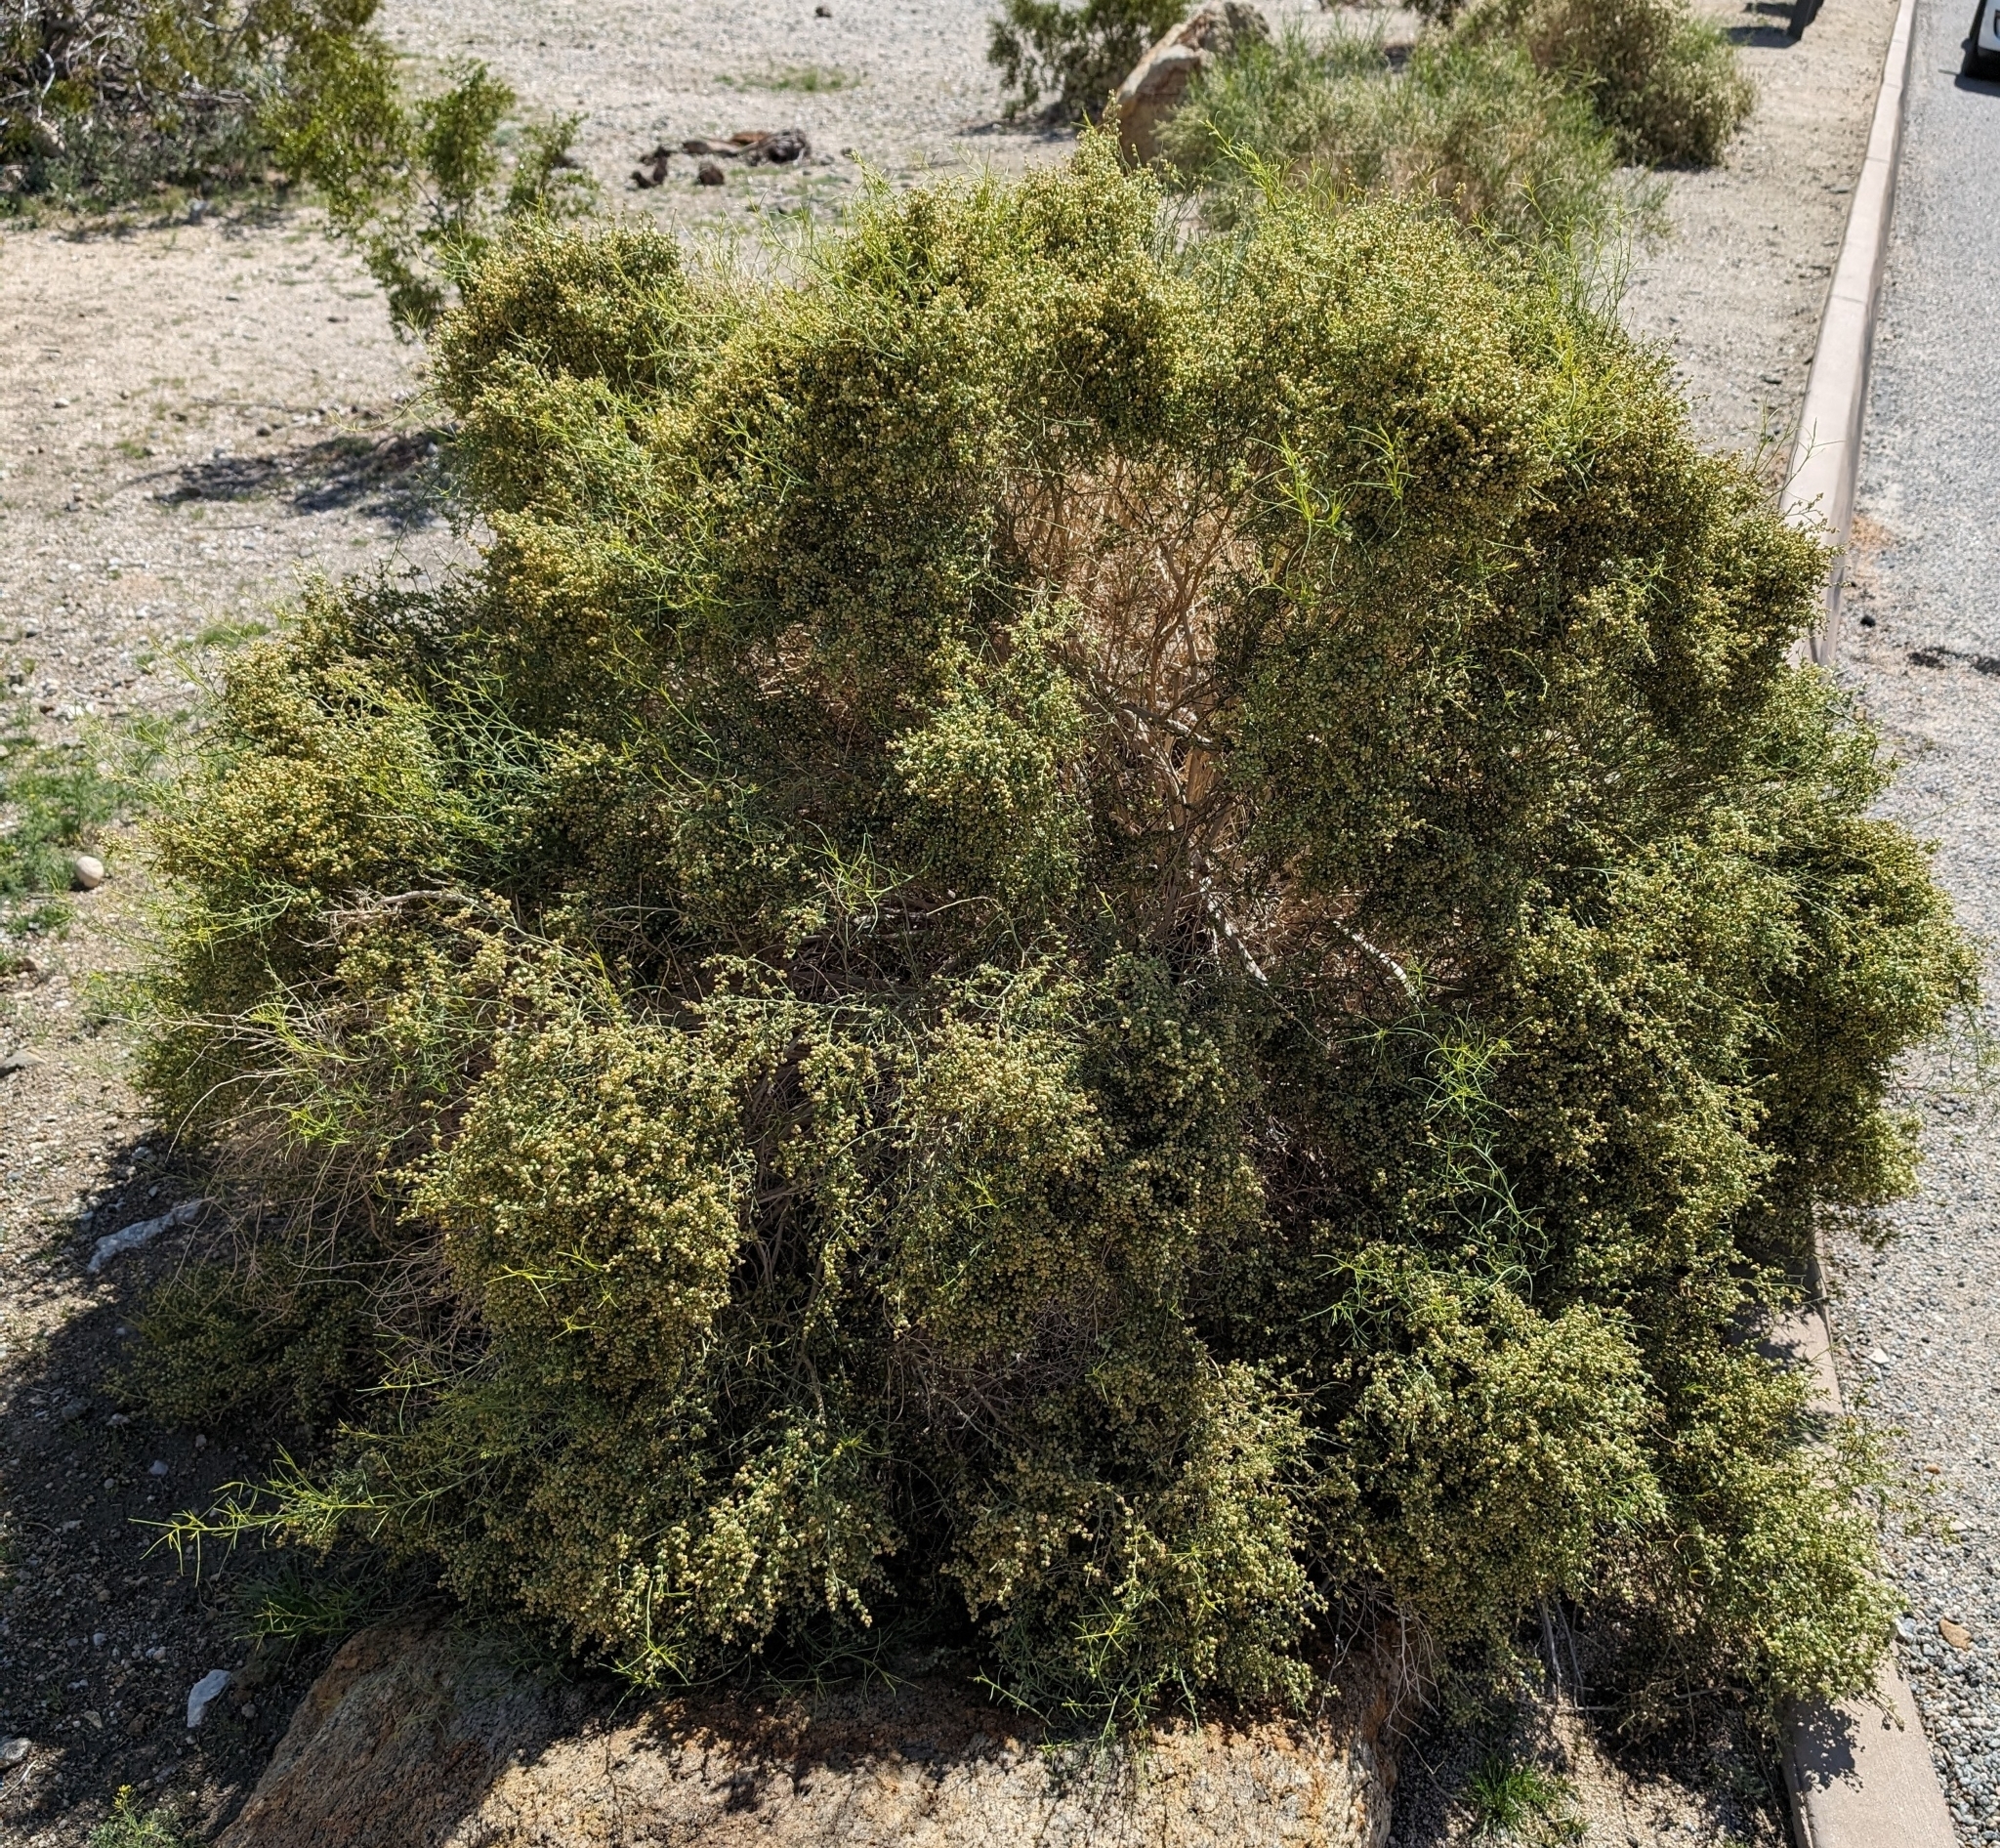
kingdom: Plantae
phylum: Tracheophyta
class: Magnoliopsida
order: Asterales
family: Asteraceae
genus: Ambrosia
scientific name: Ambrosia salsola
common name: Burrobrush
